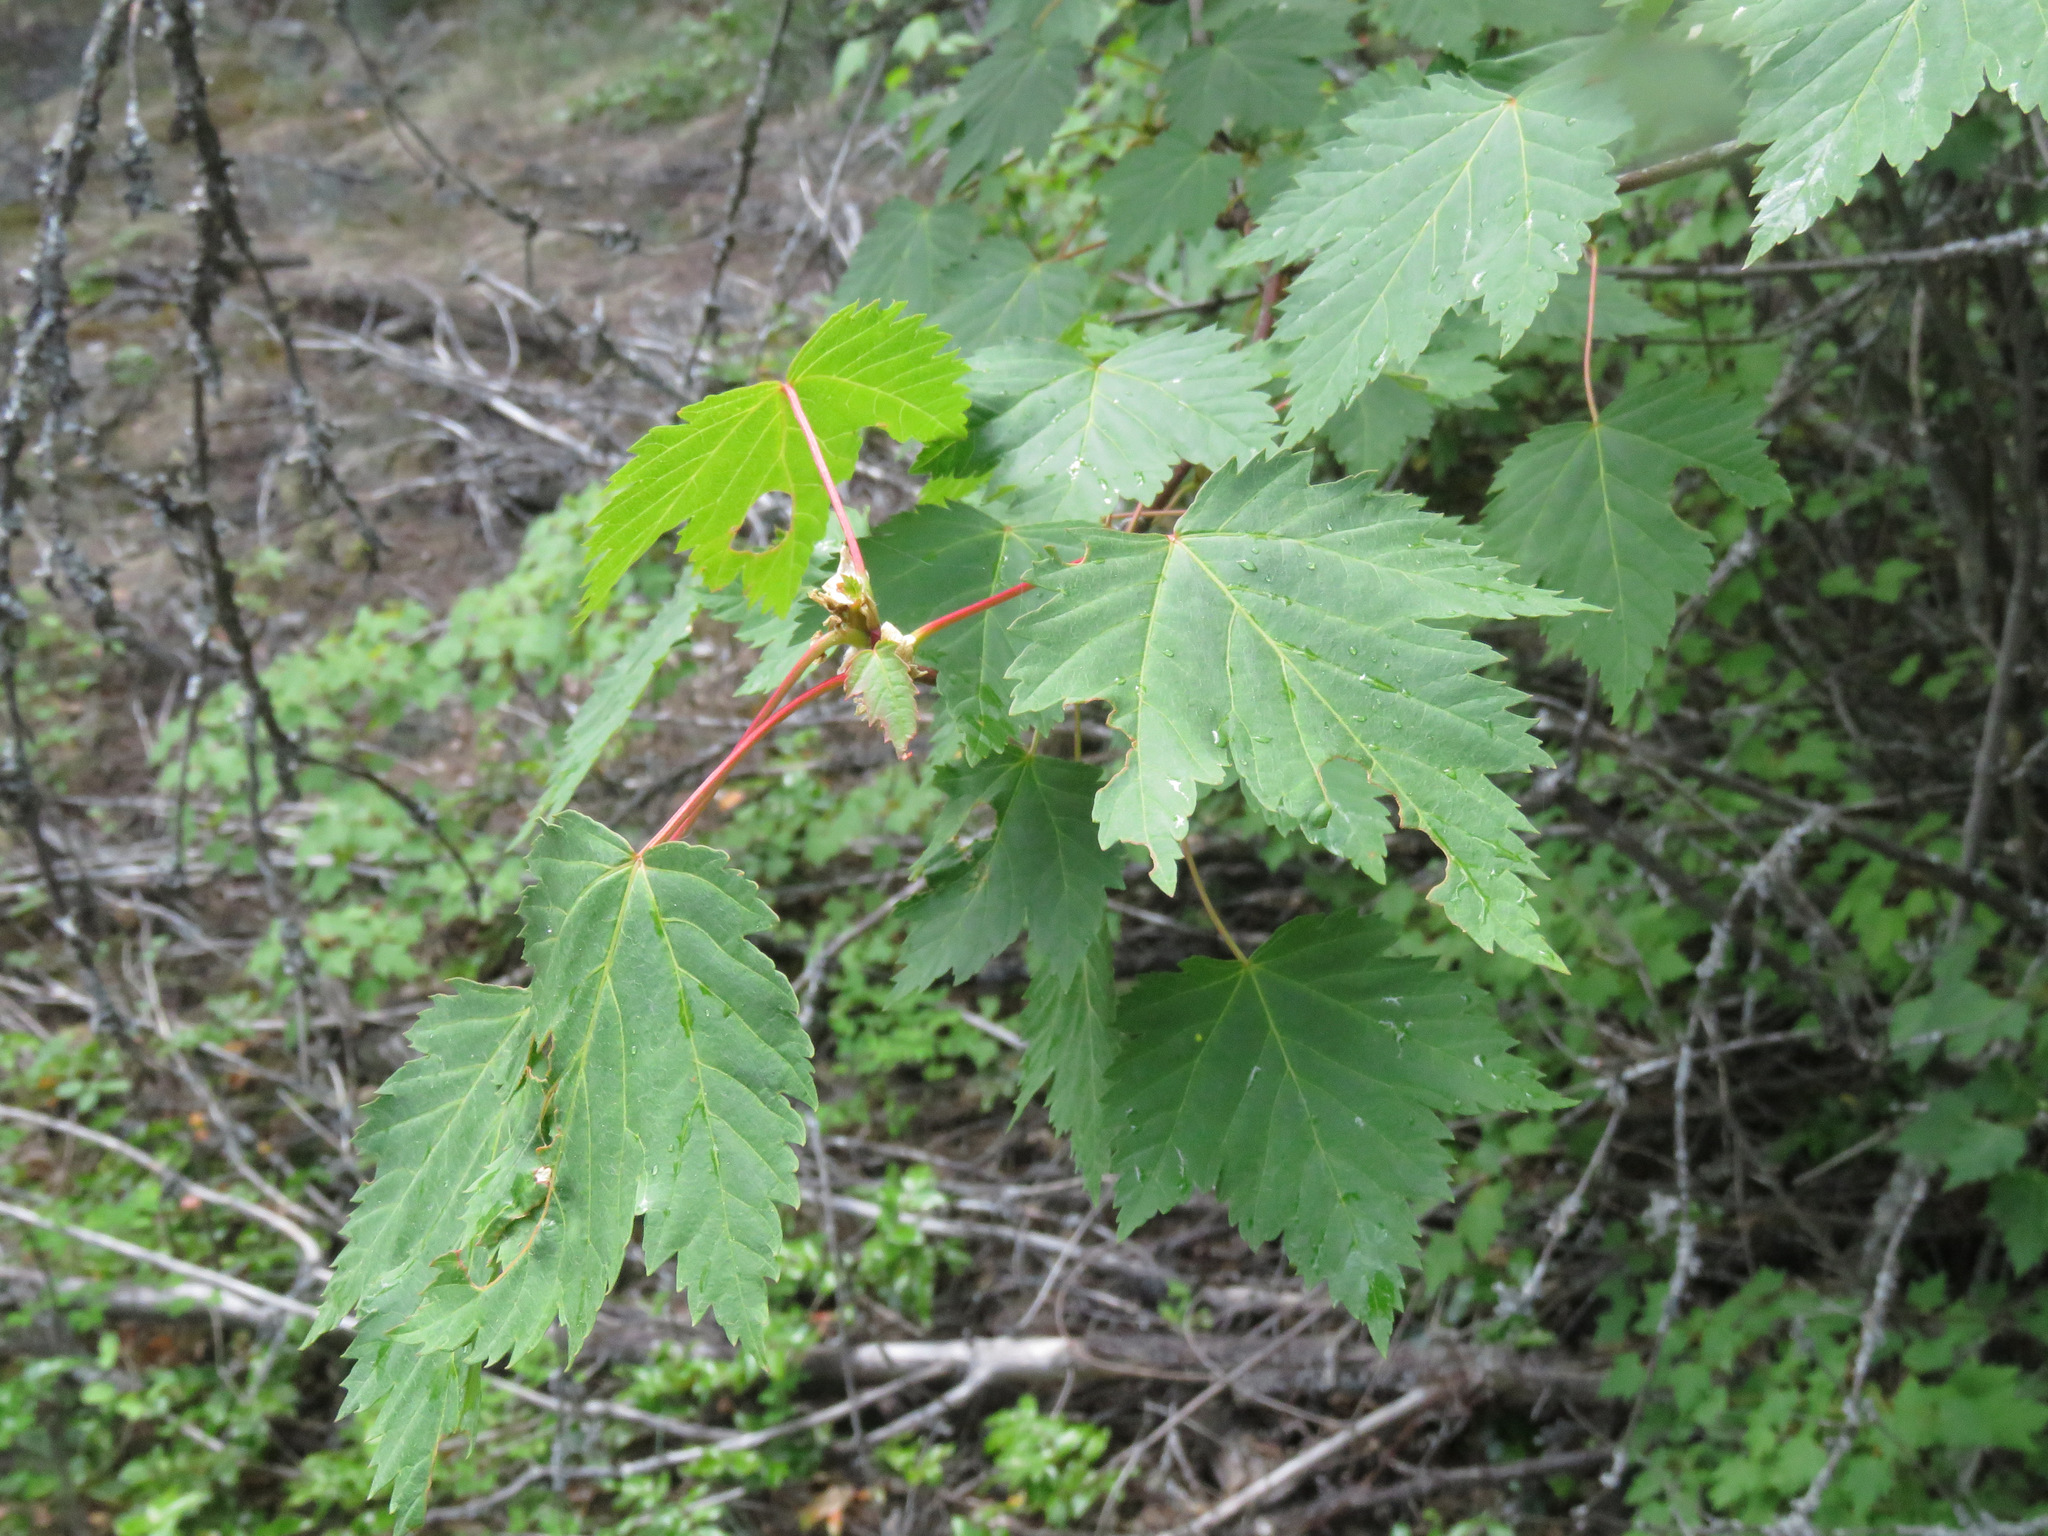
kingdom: Plantae
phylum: Tracheophyta
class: Magnoliopsida
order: Sapindales
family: Sapindaceae
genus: Acer
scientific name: Acer glabrum
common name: Rocky mountain maple
